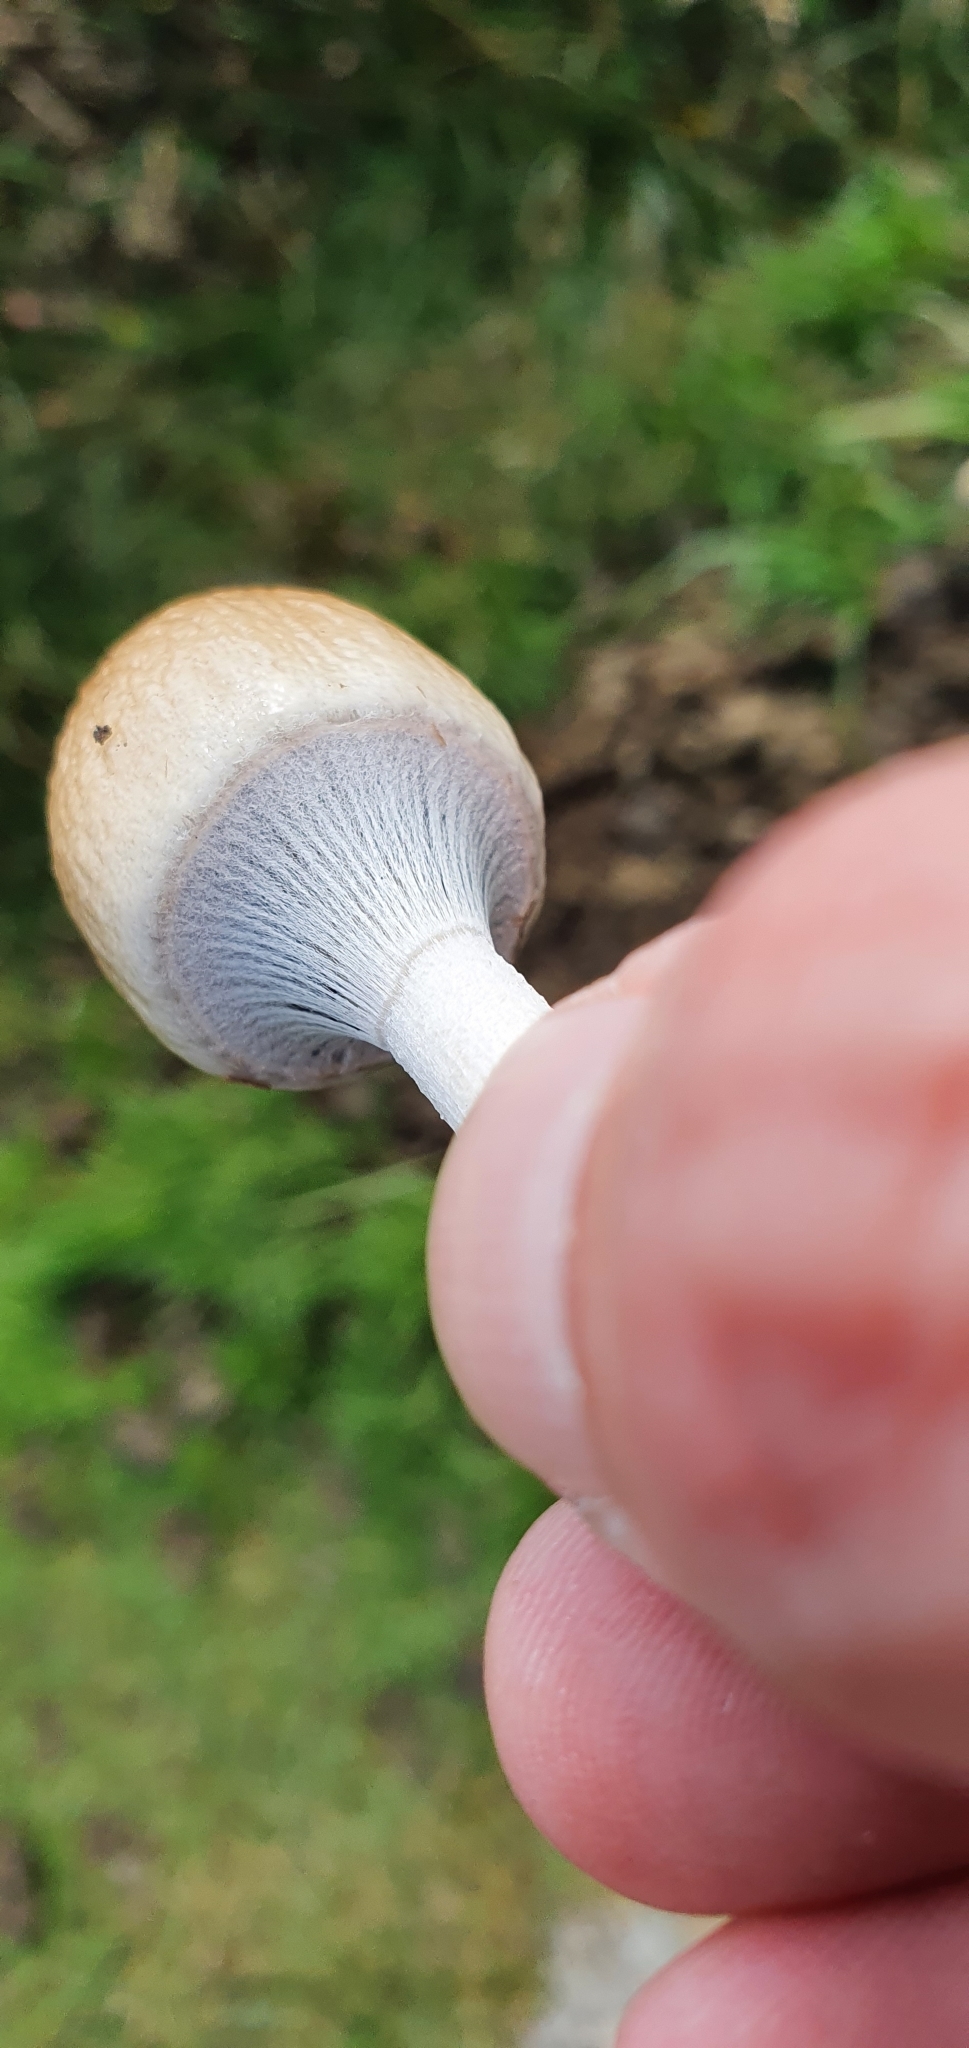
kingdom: Fungi
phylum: Basidiomycota
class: Agaricomycetes
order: Agaricales
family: Bolbitiaceae
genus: Panaeolus
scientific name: Panaeolus semiovatus
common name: Shiny mottlegill
